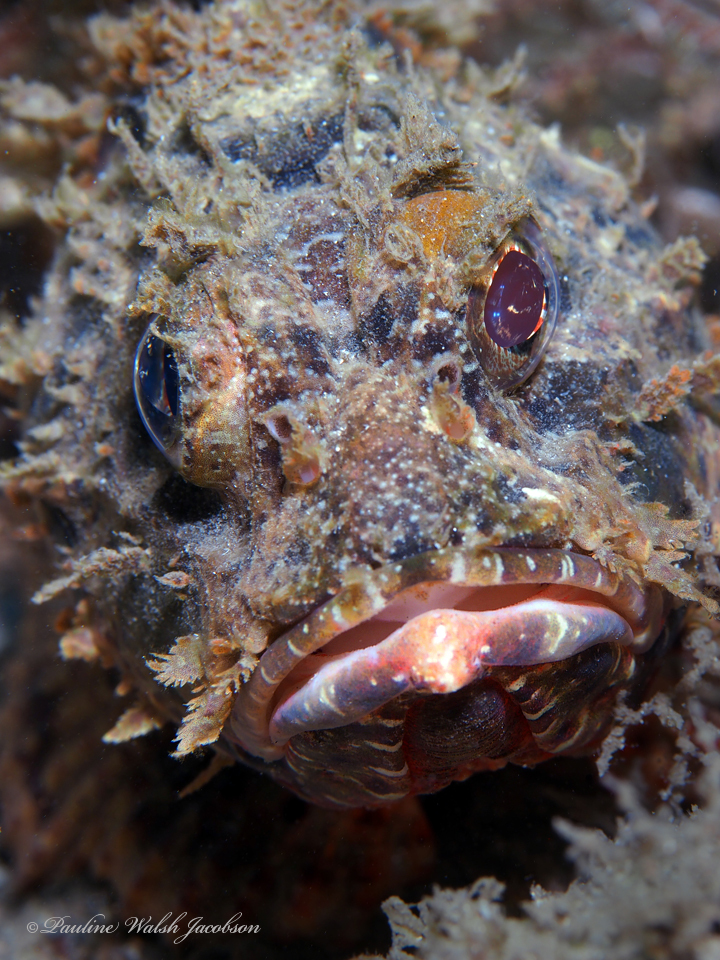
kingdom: Animalia
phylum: Chordata
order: Scorpaeniformes
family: Scorpaenidae
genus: Scorpaena
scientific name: Scorpaena brasiliensis
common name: Barbfish
